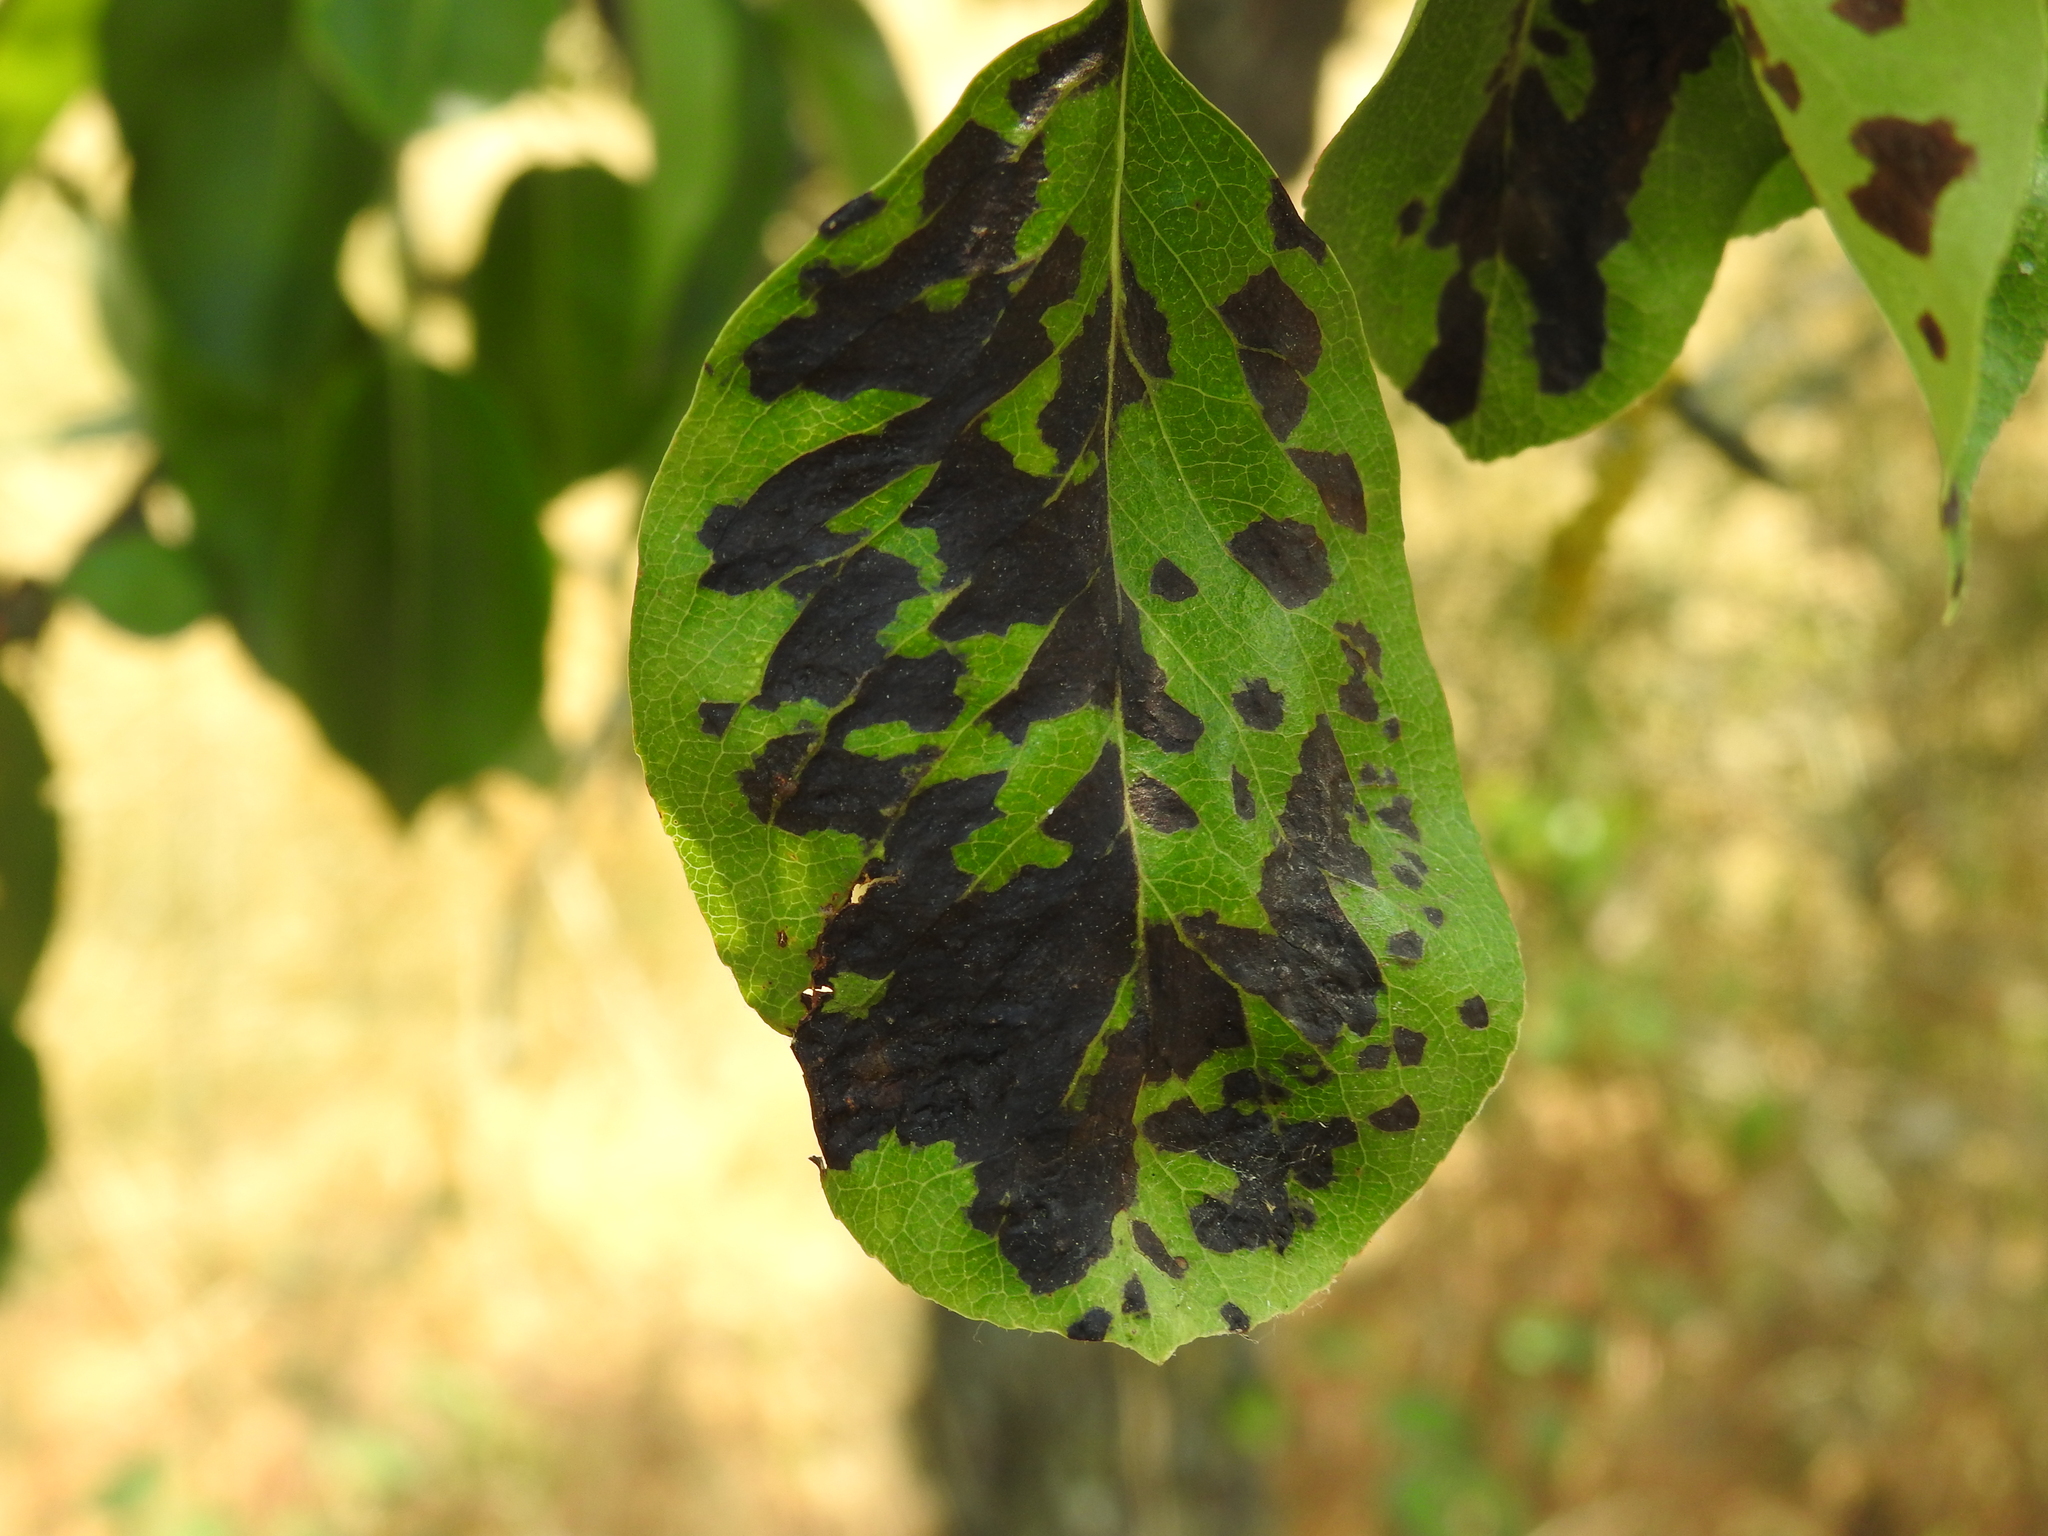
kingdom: Animalia
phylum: Arthropoda
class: Arachnida
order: Trombidiformes
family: Eriophyidae
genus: Eriophyes
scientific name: Eriophyes pyri
